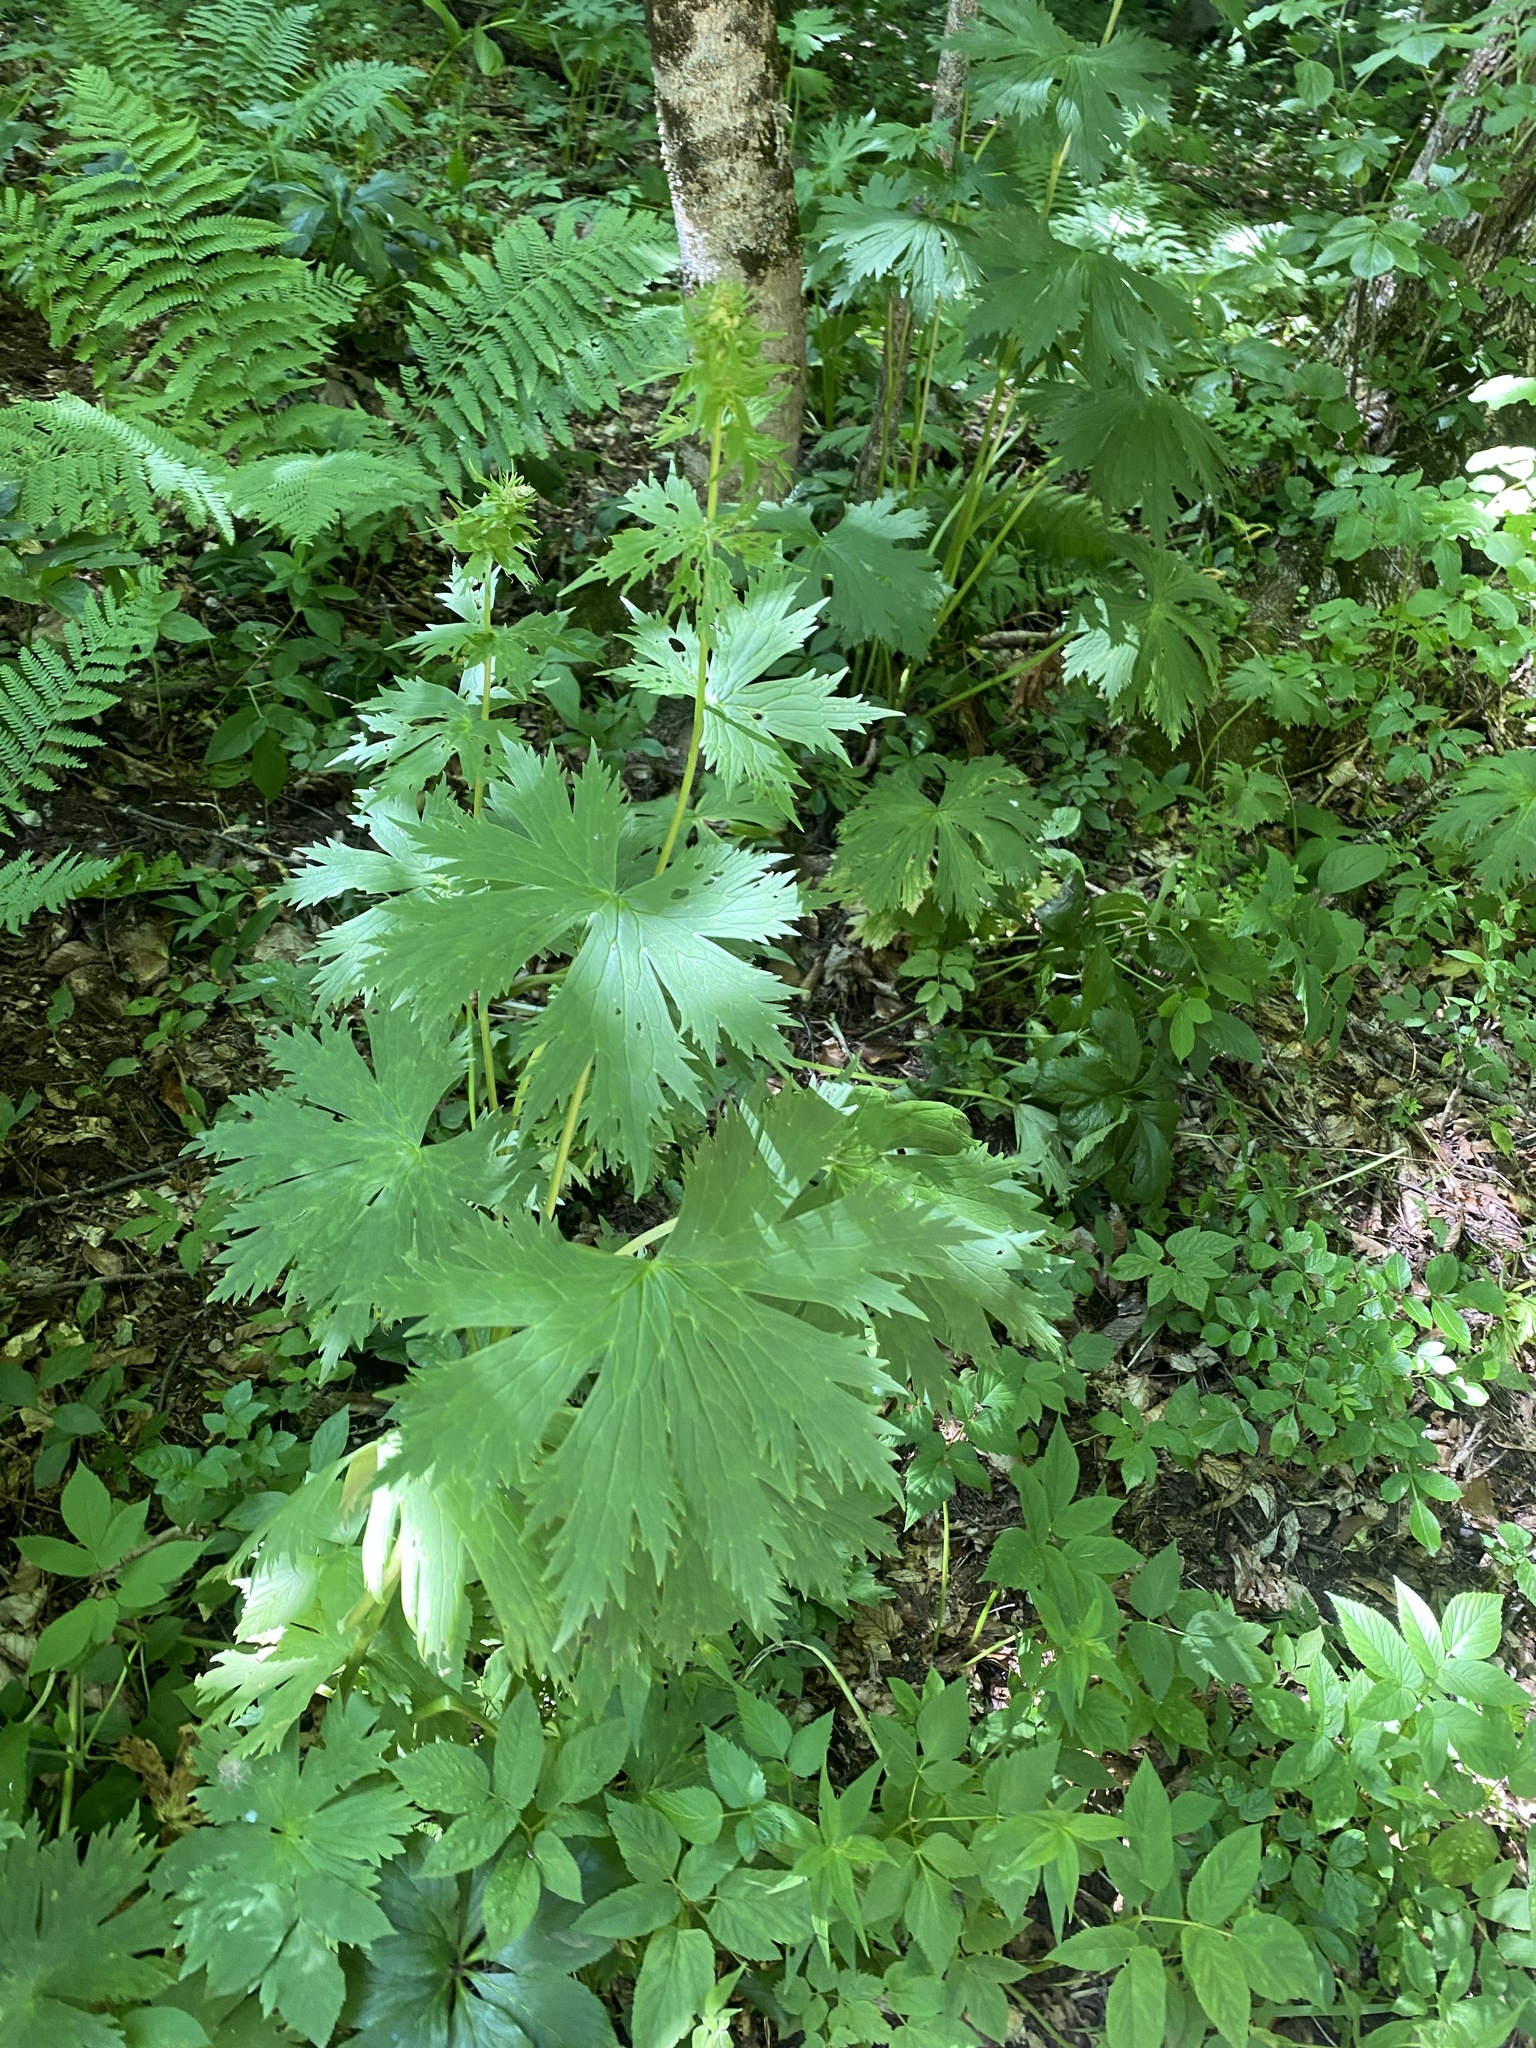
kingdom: Plantae
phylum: Tracheophyta
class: Magnoliopsida
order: Ranunculales
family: Ranunculaceae
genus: Aconitum
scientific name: Aconitum orientale
